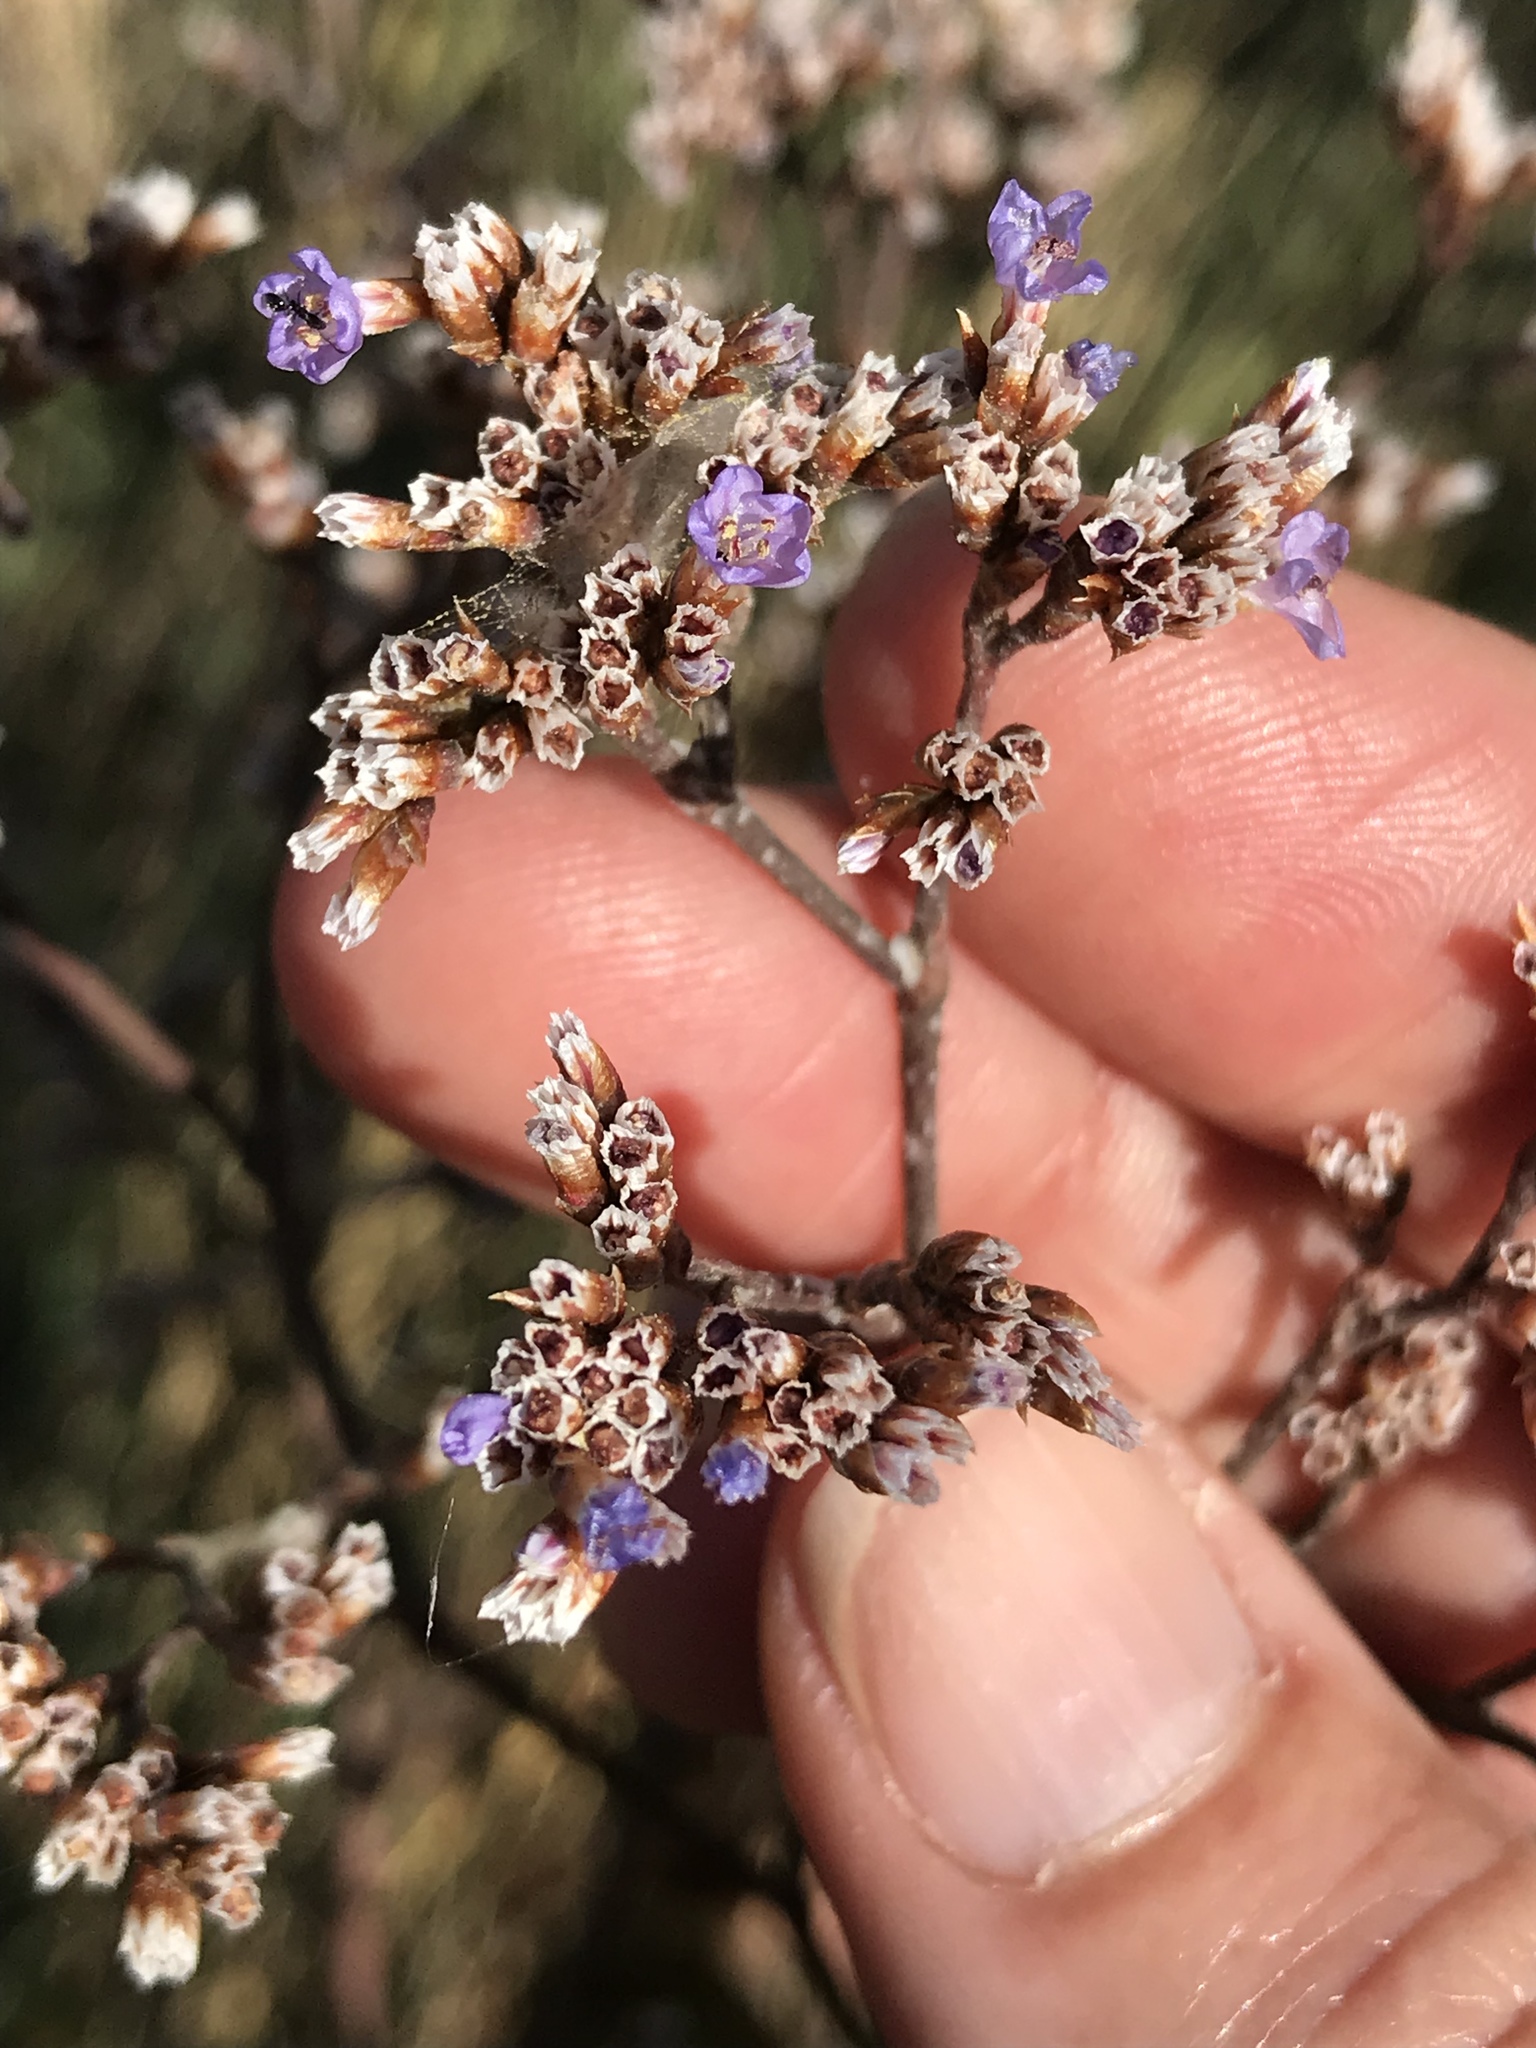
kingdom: Plantae
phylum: Tracheophyta
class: Magnoliopsida
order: Caryophyllales
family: Plumbaginaceae
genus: Limonium
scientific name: Limonium californicum
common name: Marsh-rosemary
